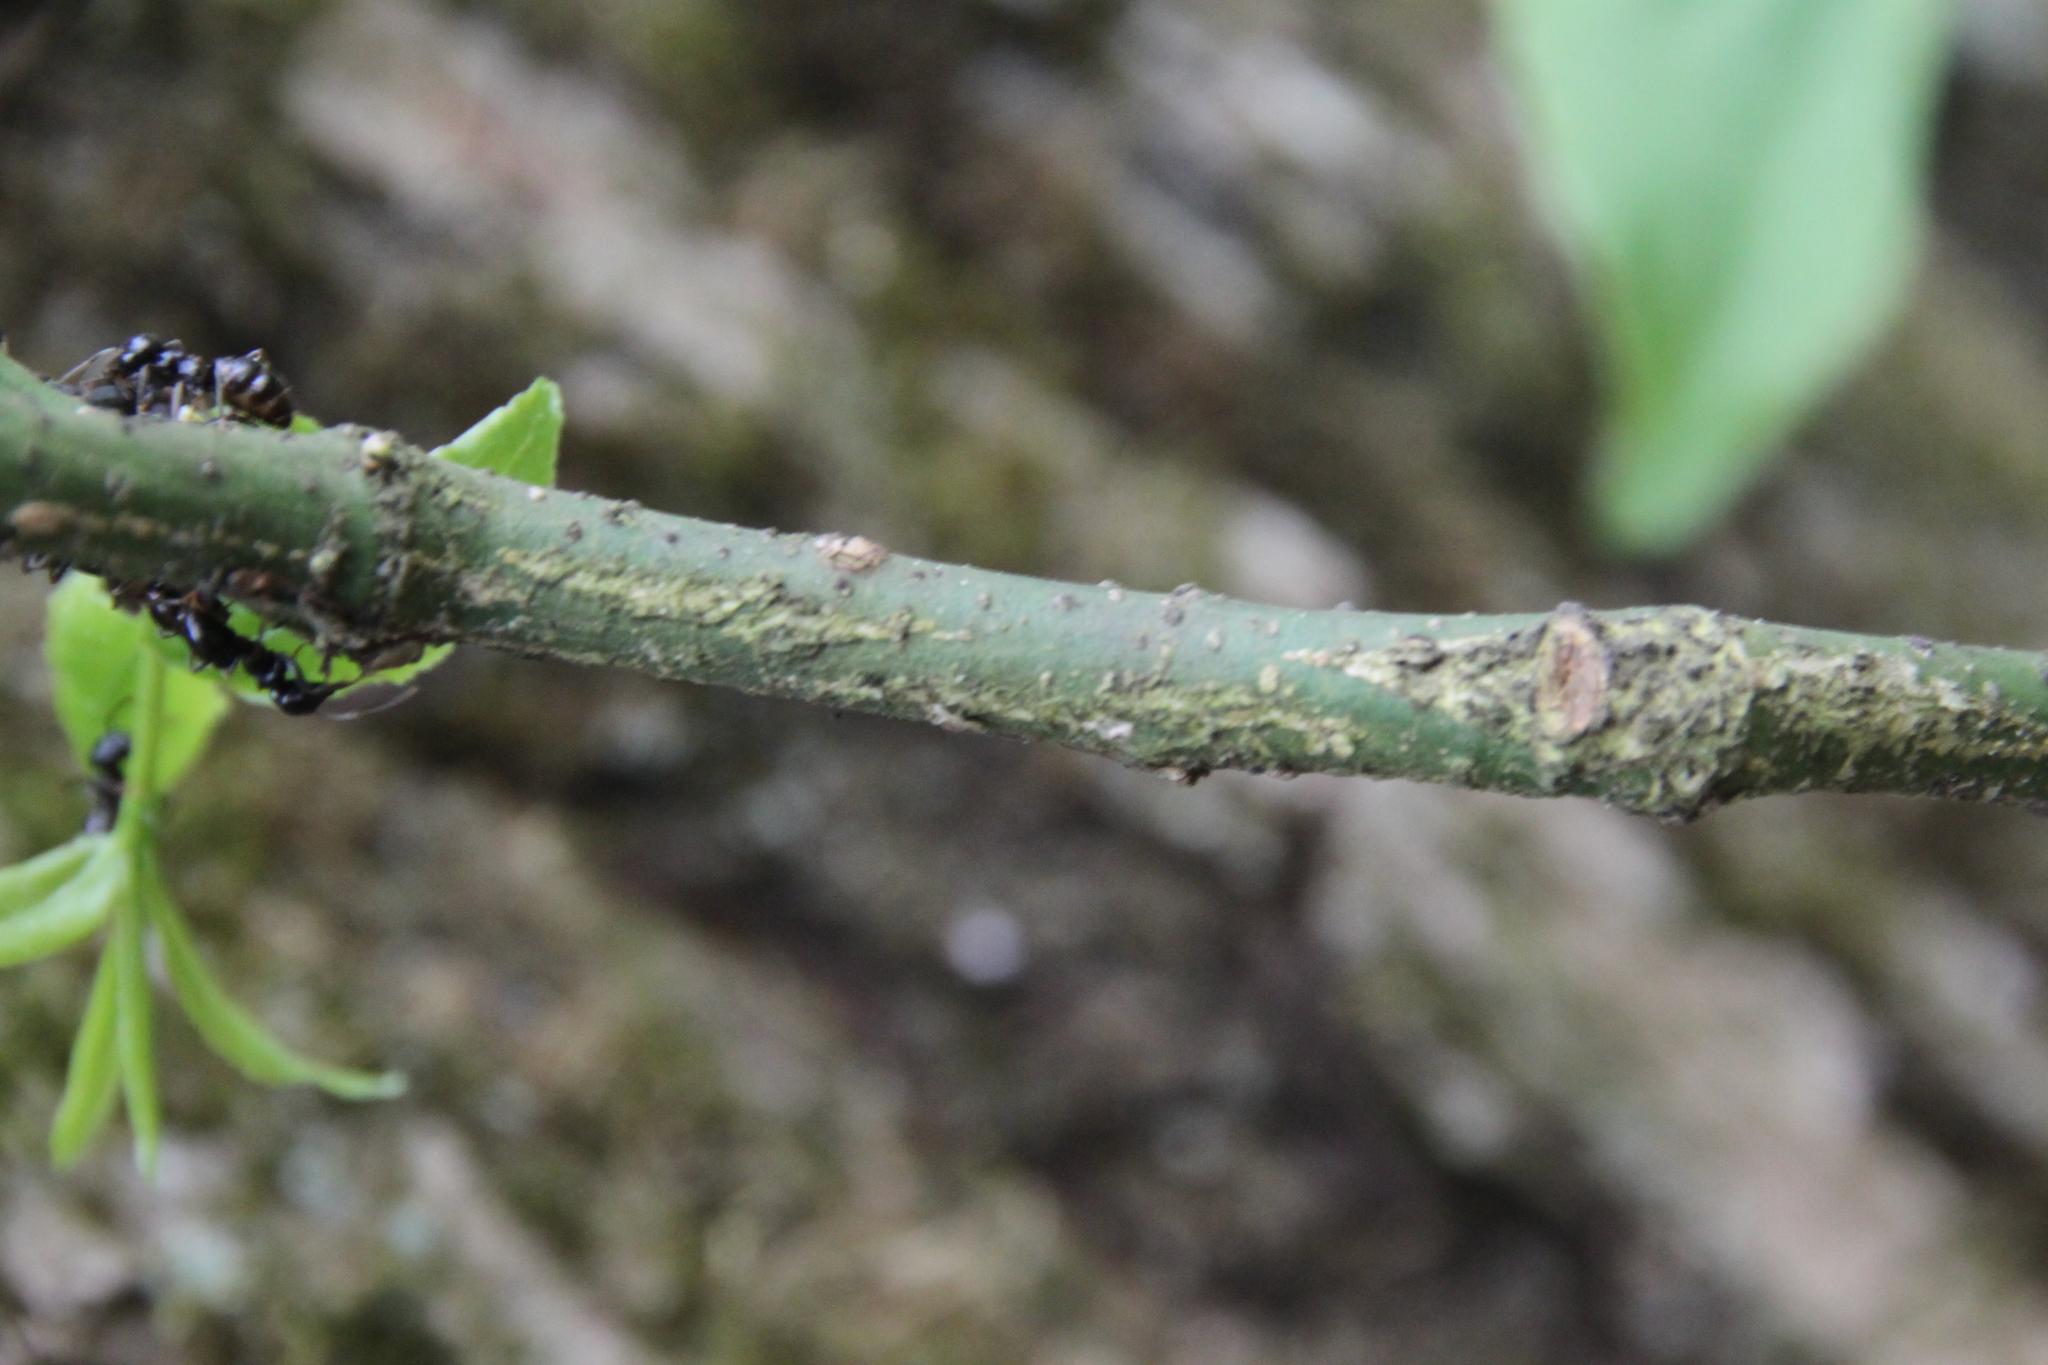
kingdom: Plantae
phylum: Tracheophyta
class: Magnoliopsida
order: Celastrales
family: Celastraceae
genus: Euonymus
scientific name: Euonymus verrucosus
